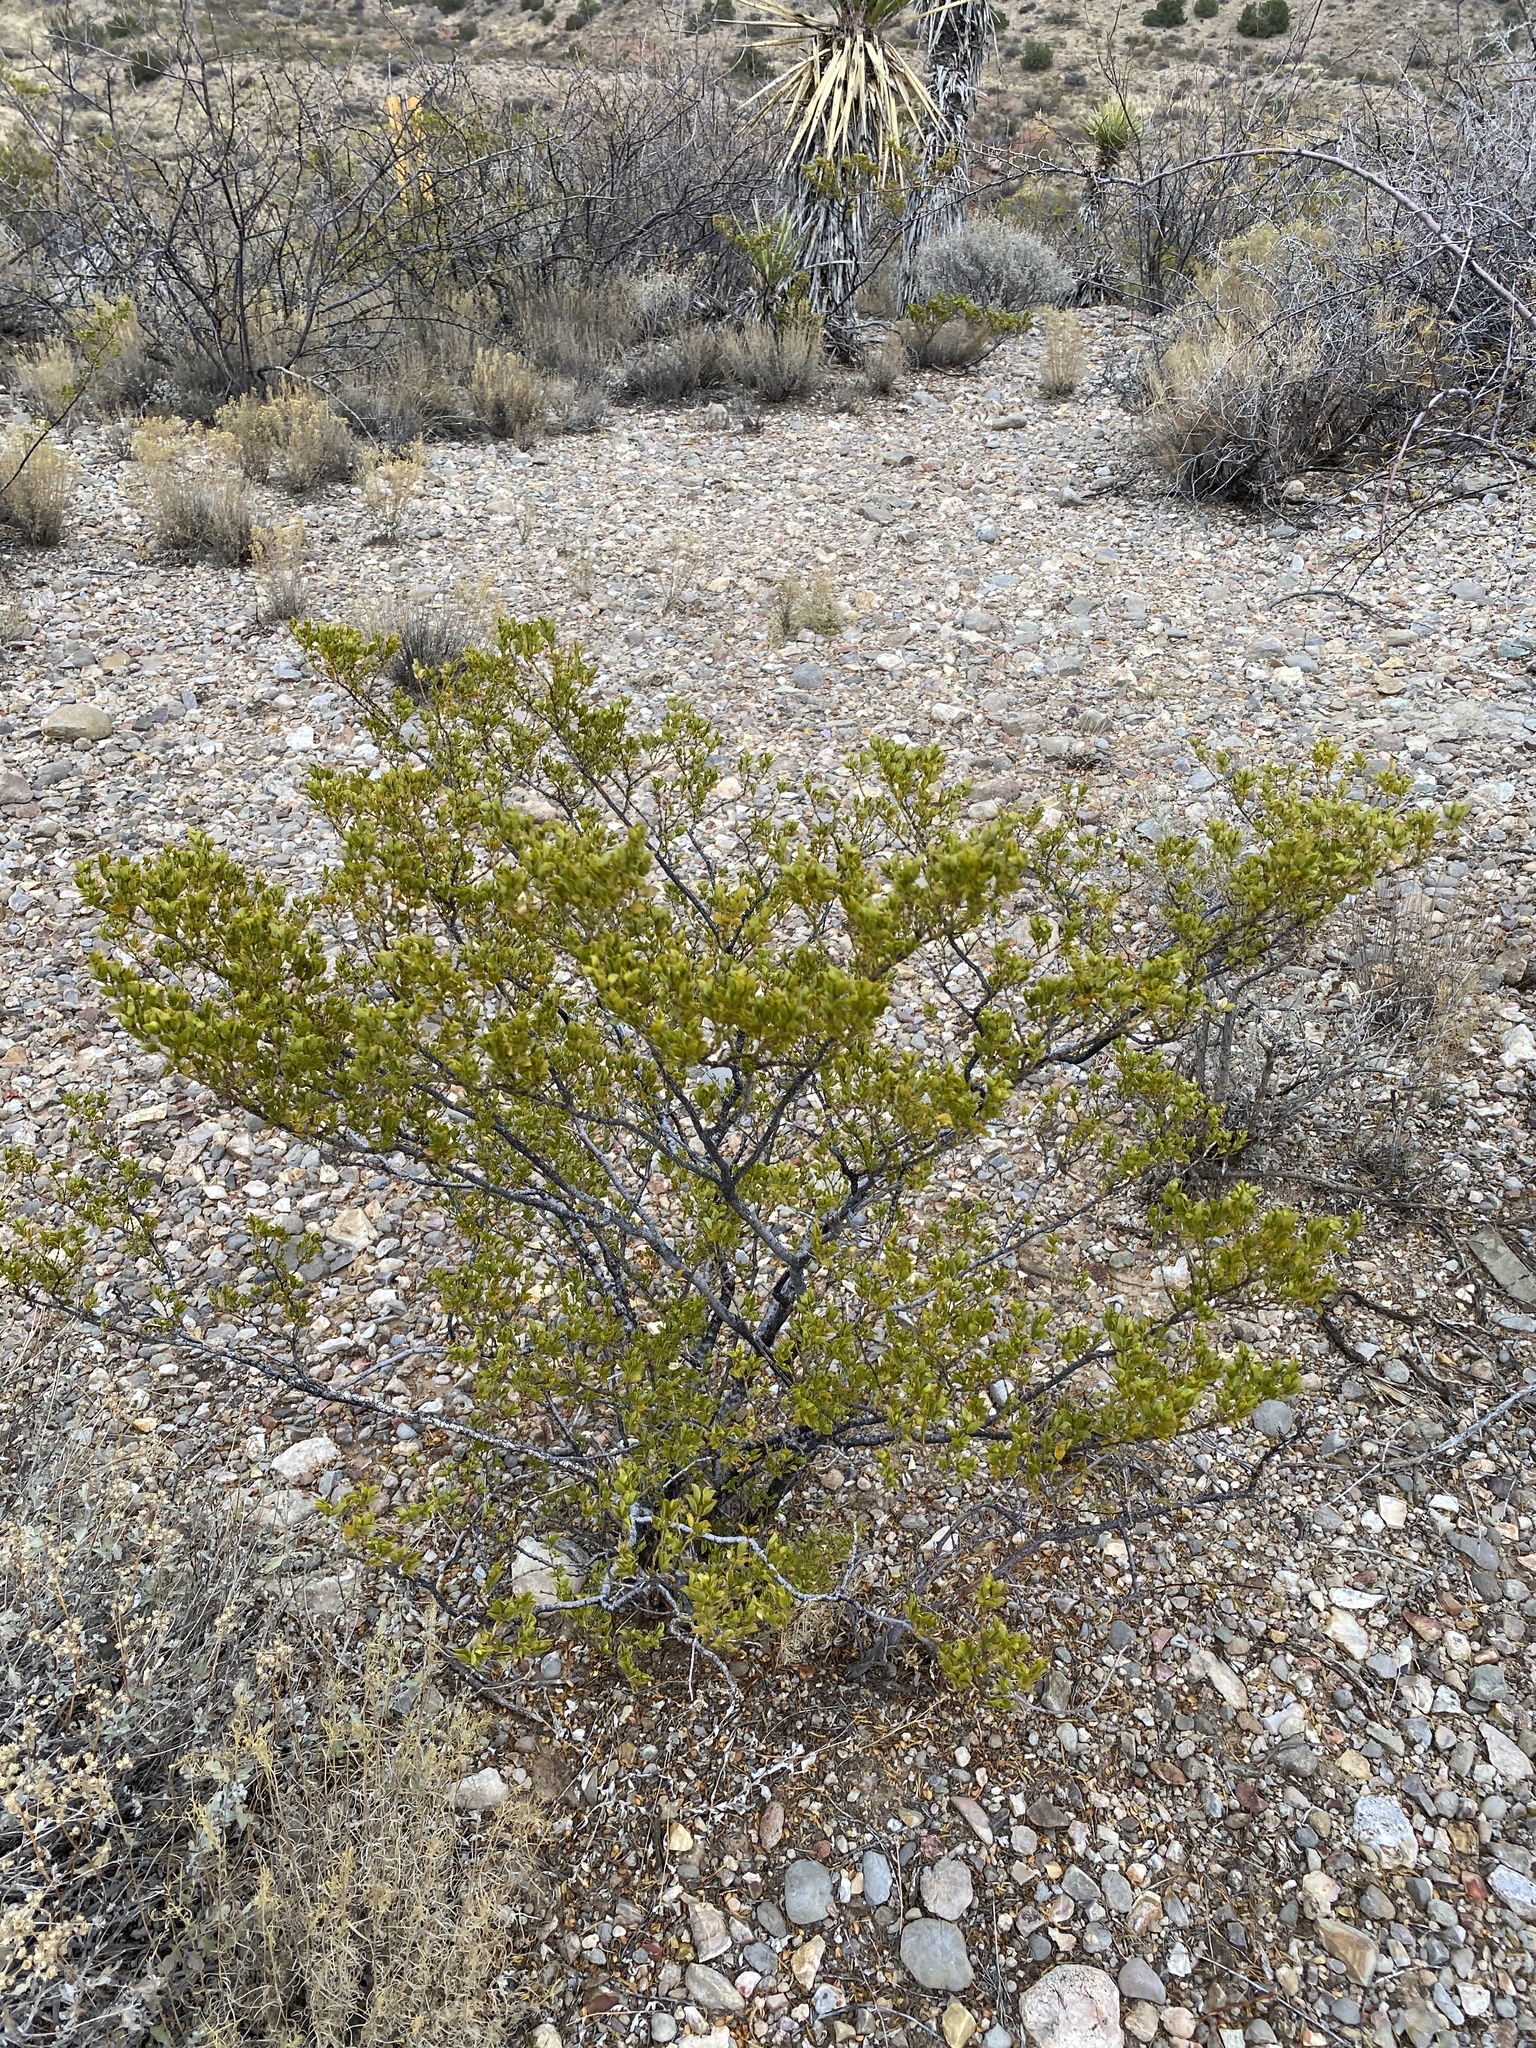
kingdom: Plantae
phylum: Tracheophyta
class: Magnoliopsida
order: Zygophyllales
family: Zygophyllaceae
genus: Larrea
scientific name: Larrea tridentata
